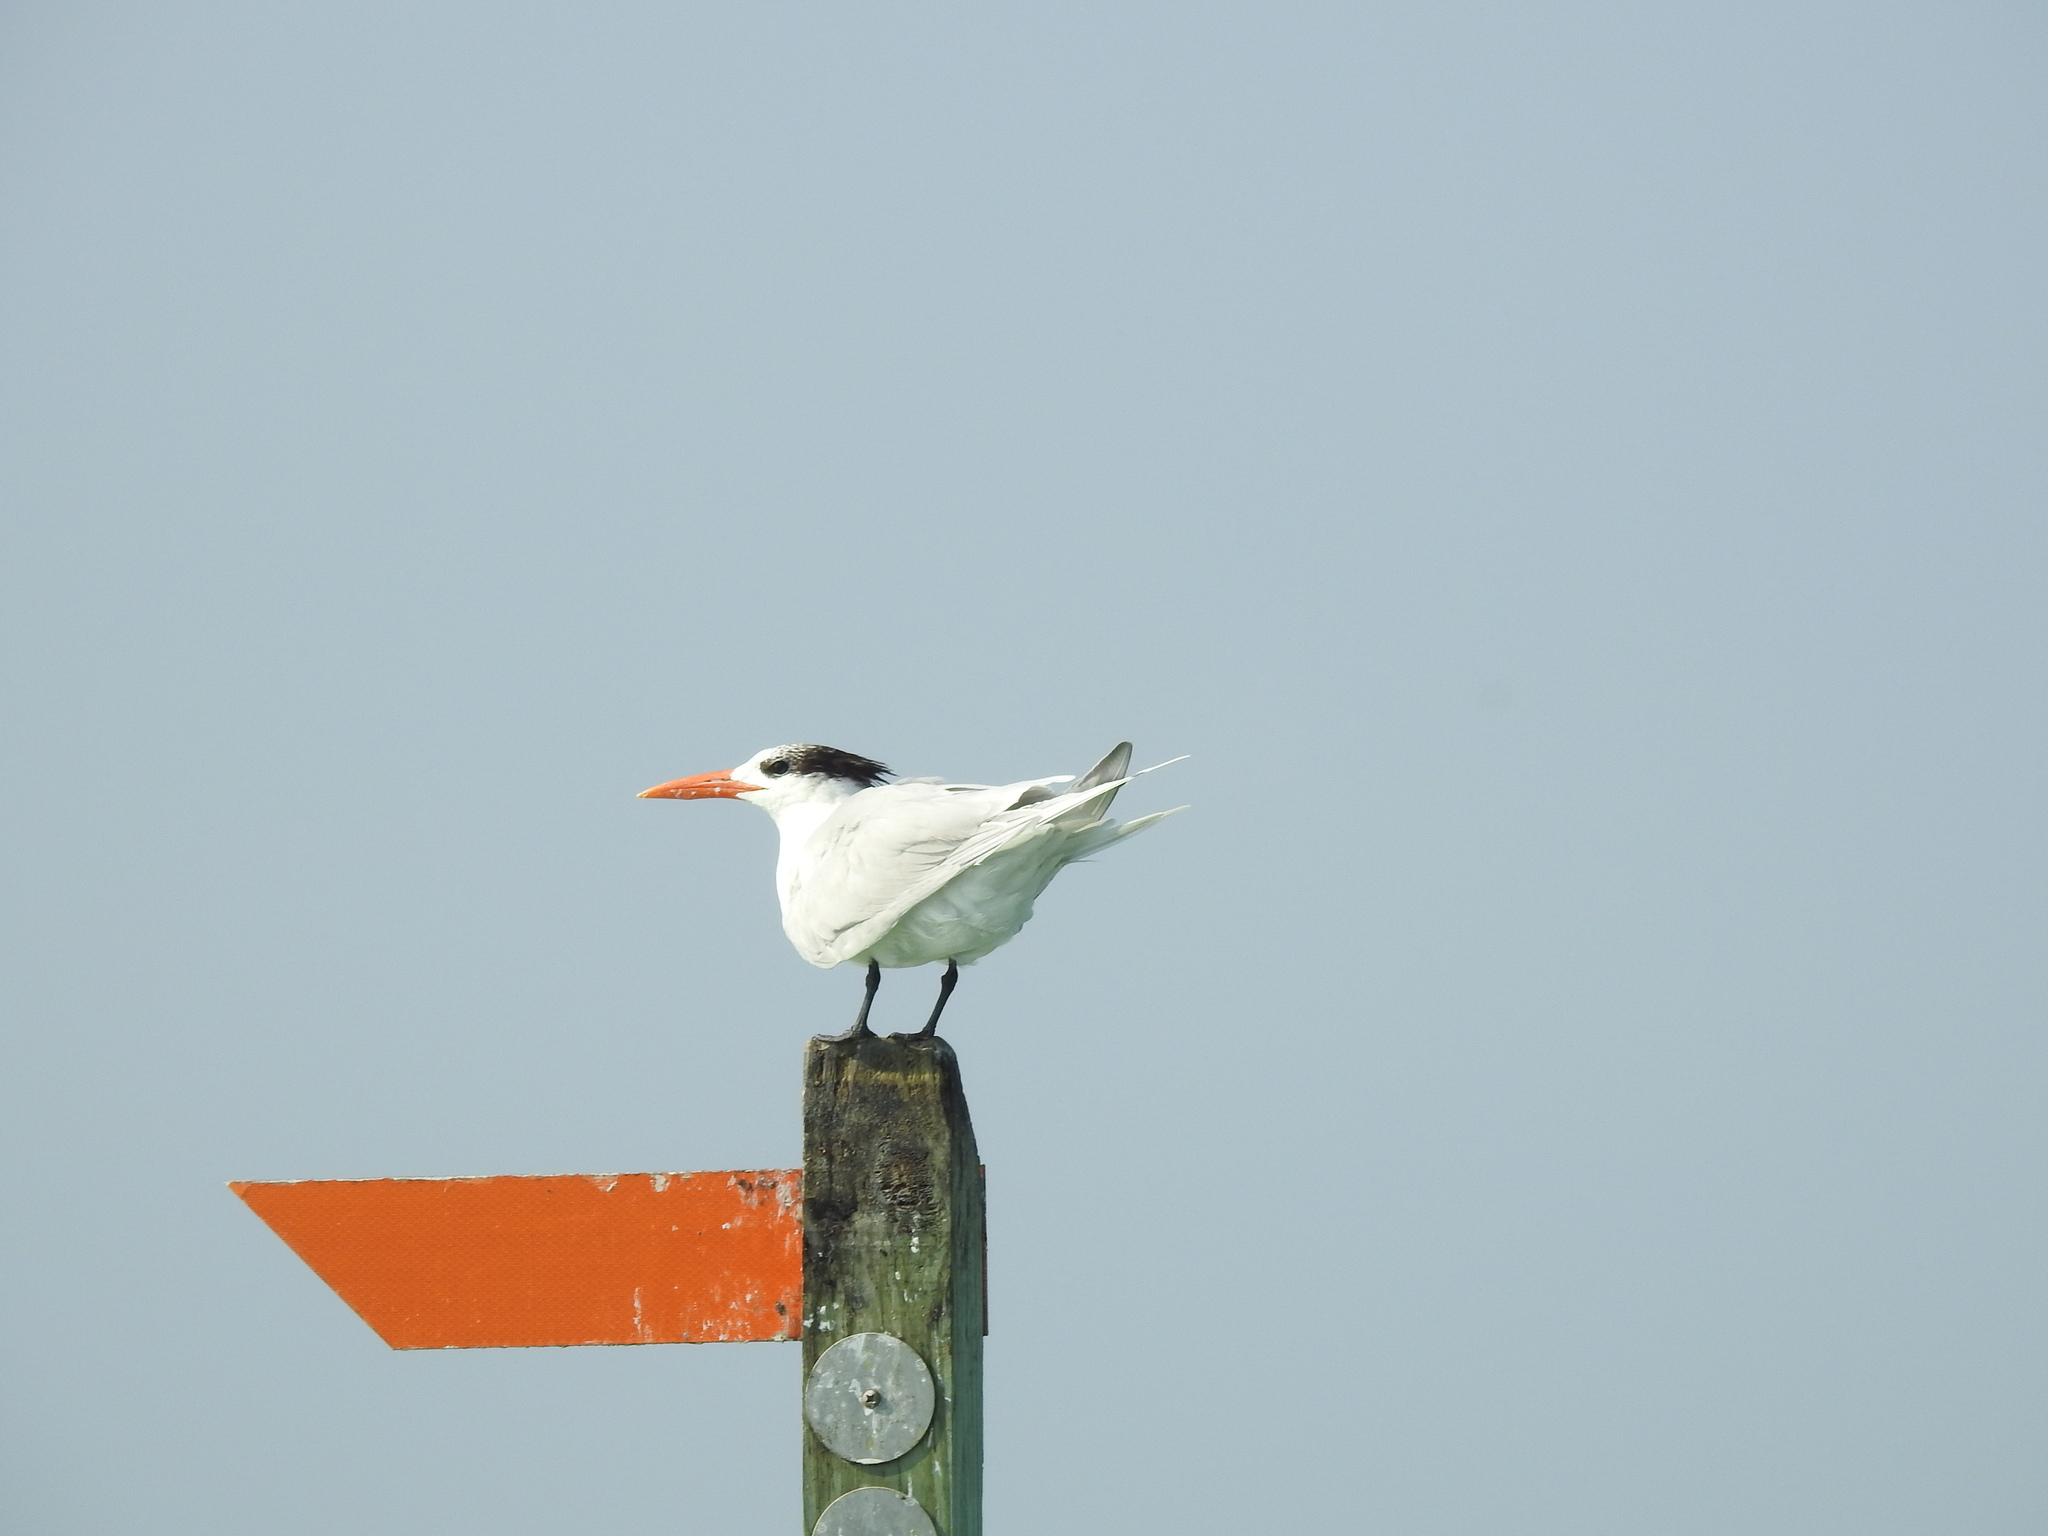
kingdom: Animalia
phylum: Chordata
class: Aves
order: Charadriiformes
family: Laridae
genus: Thalasseus
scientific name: Thalasseus maximus
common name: Royal tern
